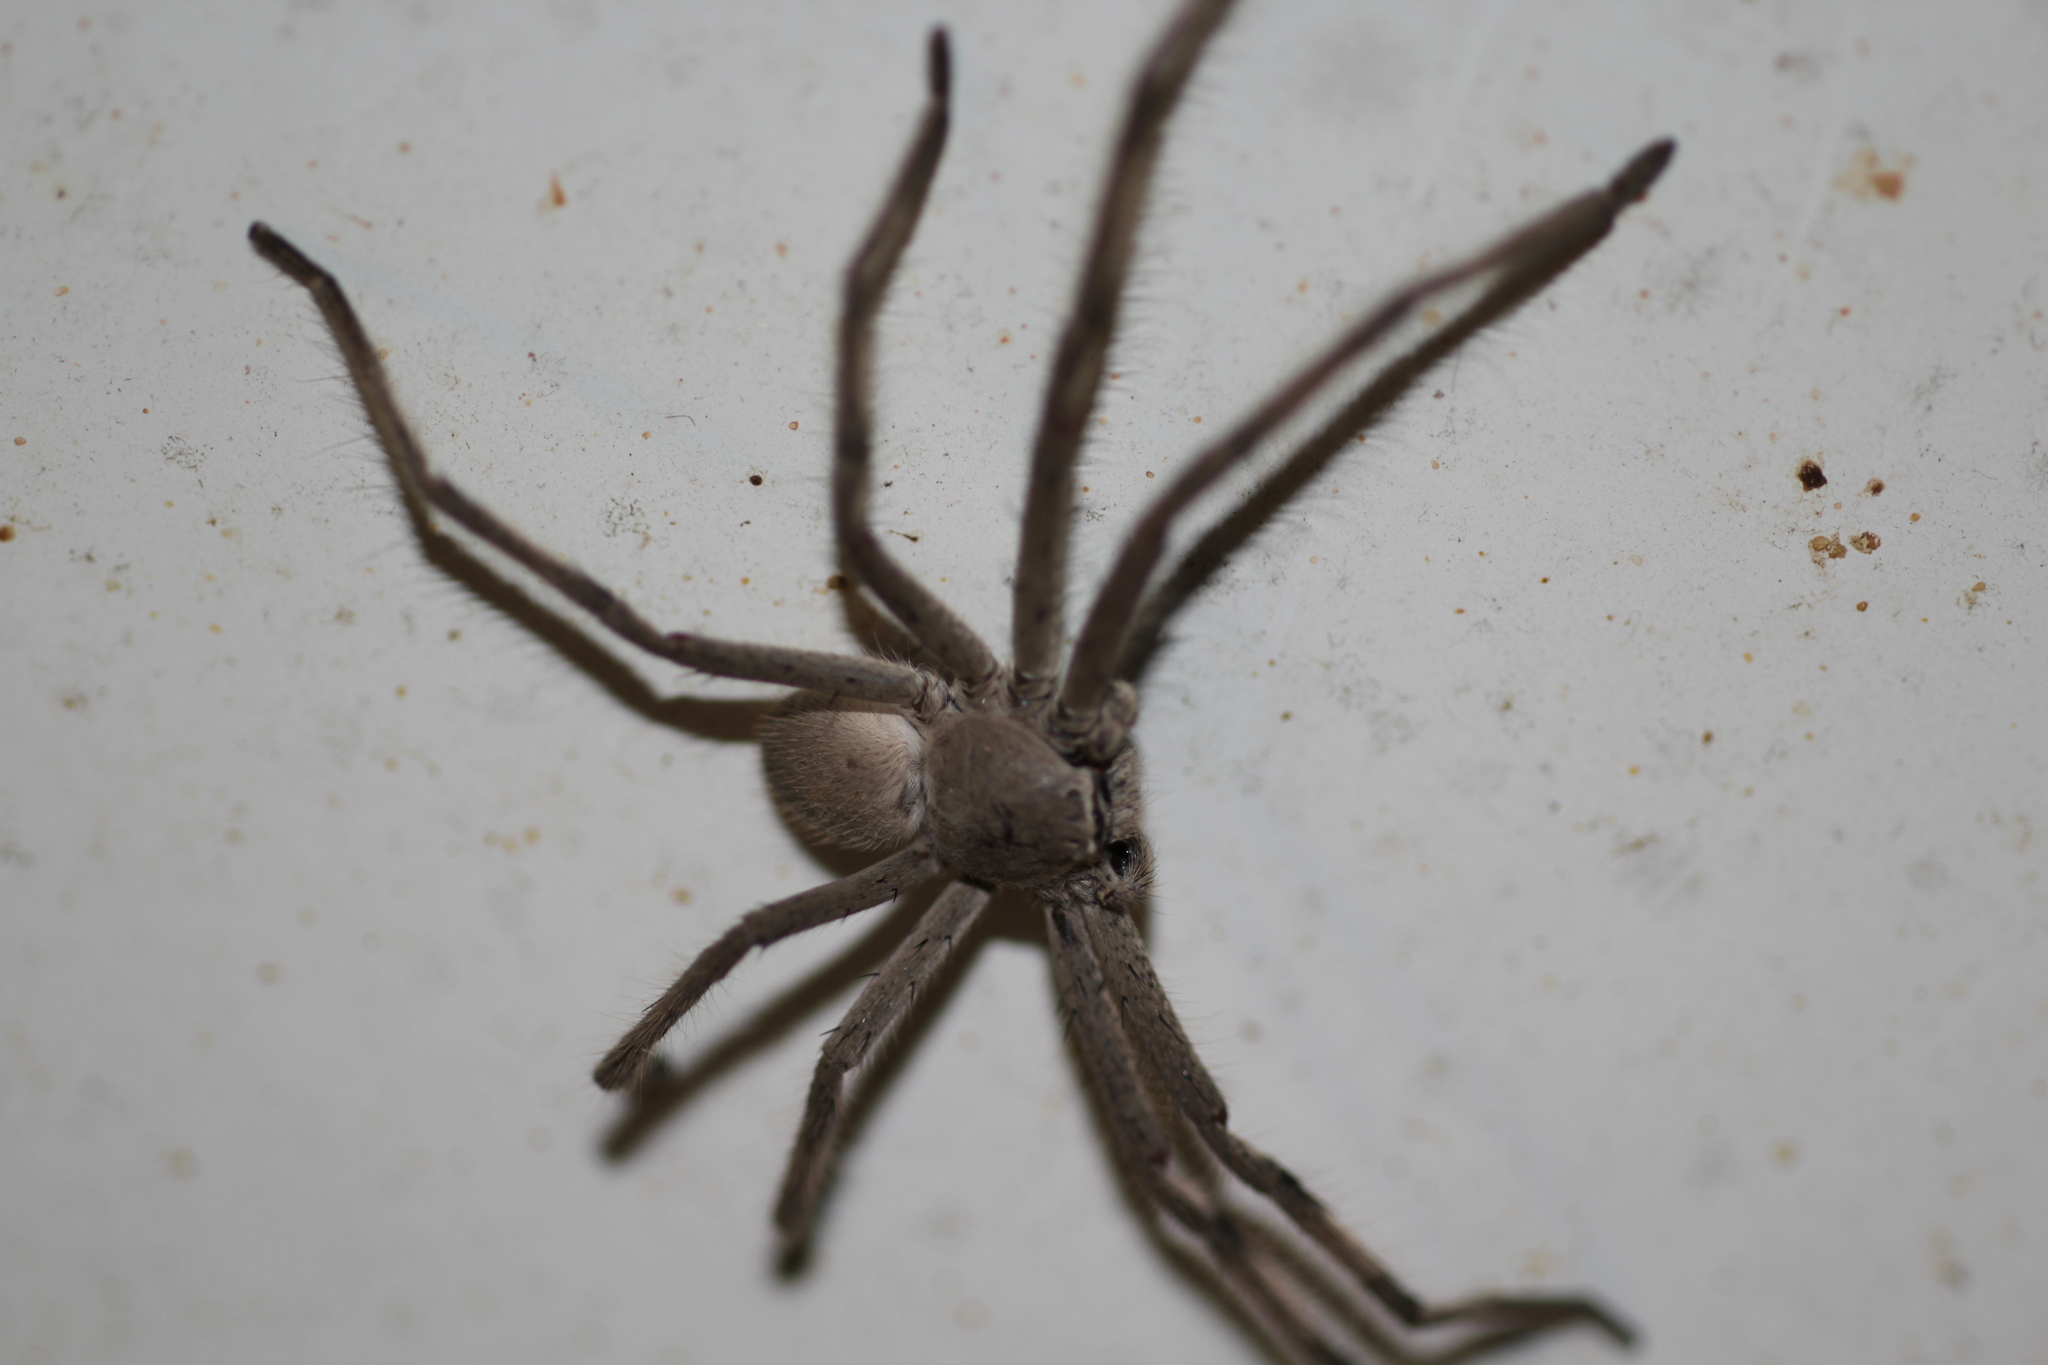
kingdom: Animalia
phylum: Arthropoda
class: Arachnida
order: Araneae
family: Sparassidae
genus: Isopedella
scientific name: Isopedella saundersi
